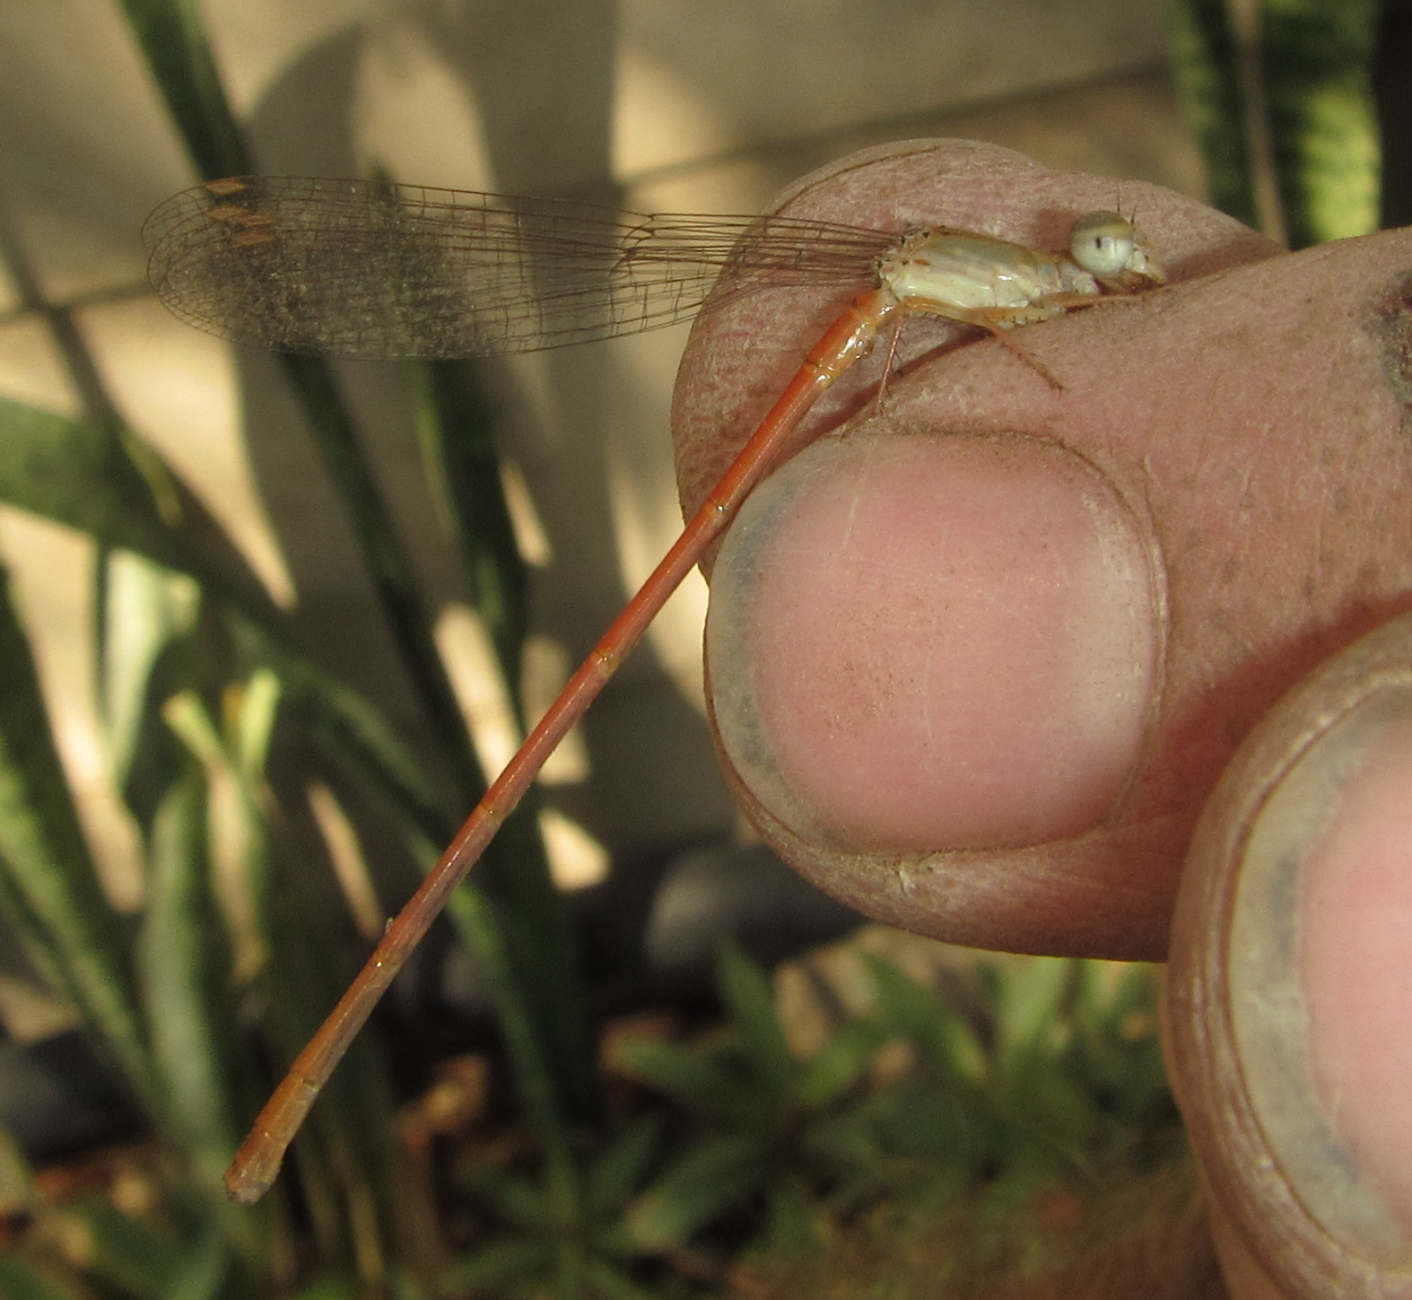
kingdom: Animalia
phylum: Arthropoda
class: Insecta
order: Odonata
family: Coenagrionidae
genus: Ceriagrion
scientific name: Ceriagrion glabrum
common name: Common pond damsel
